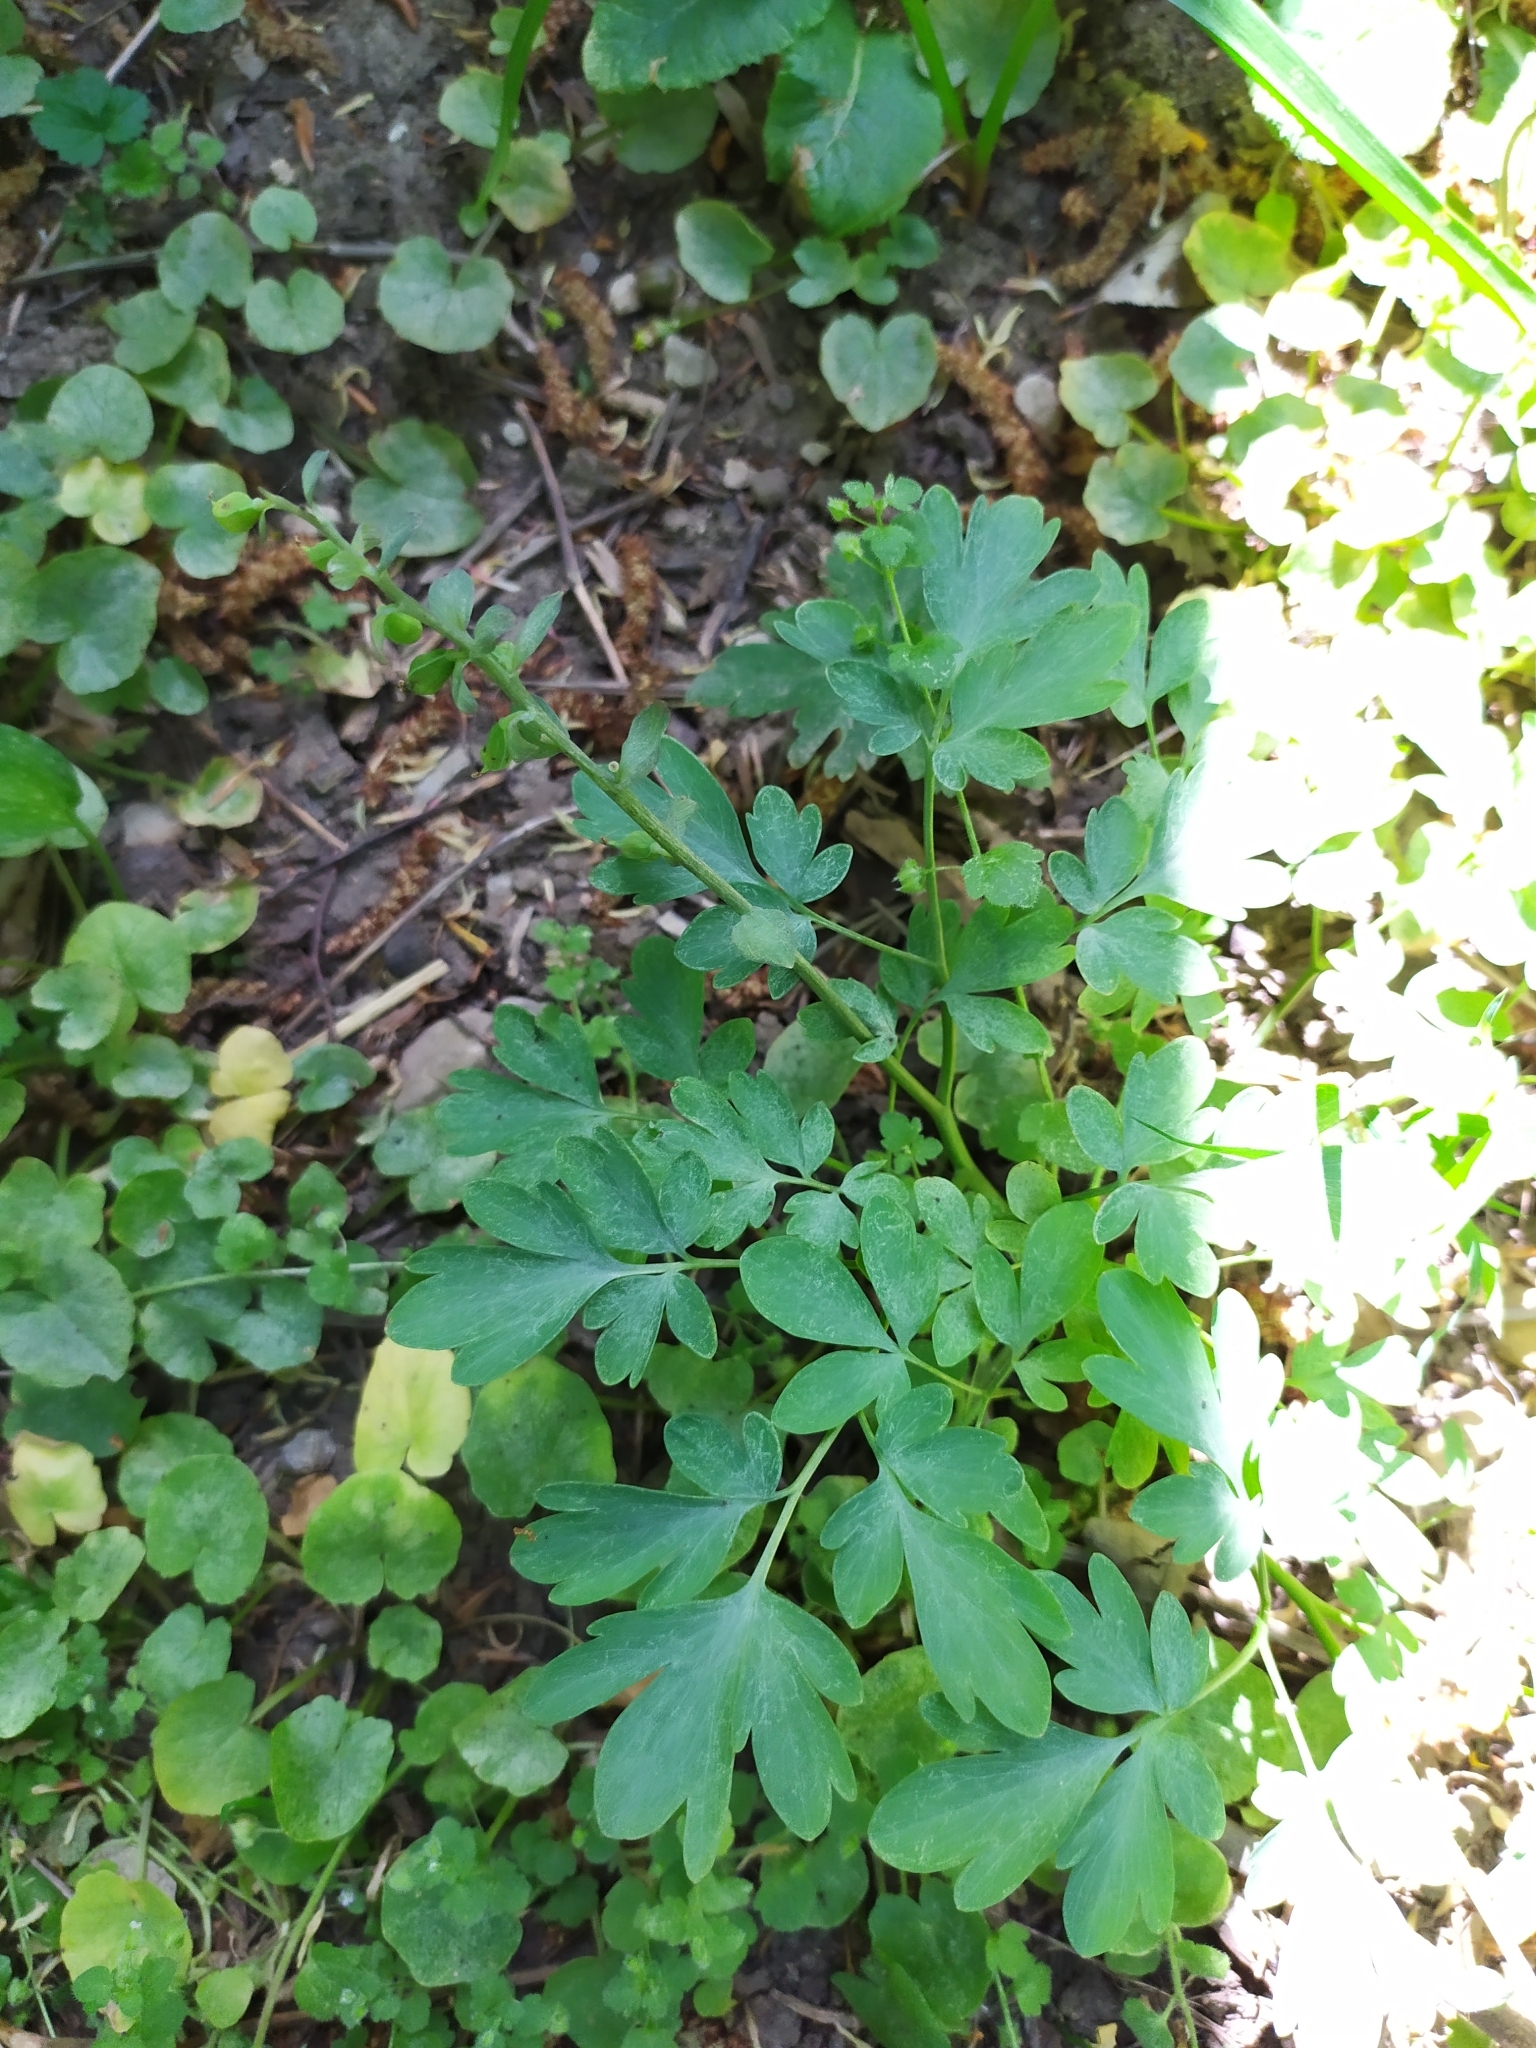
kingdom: Plantae
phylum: Tracheophyta
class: Magnoliopsida
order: Ranunculales
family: Papaveraceae
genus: Corydalis
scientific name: Corydalis cava
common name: Hollowroot
